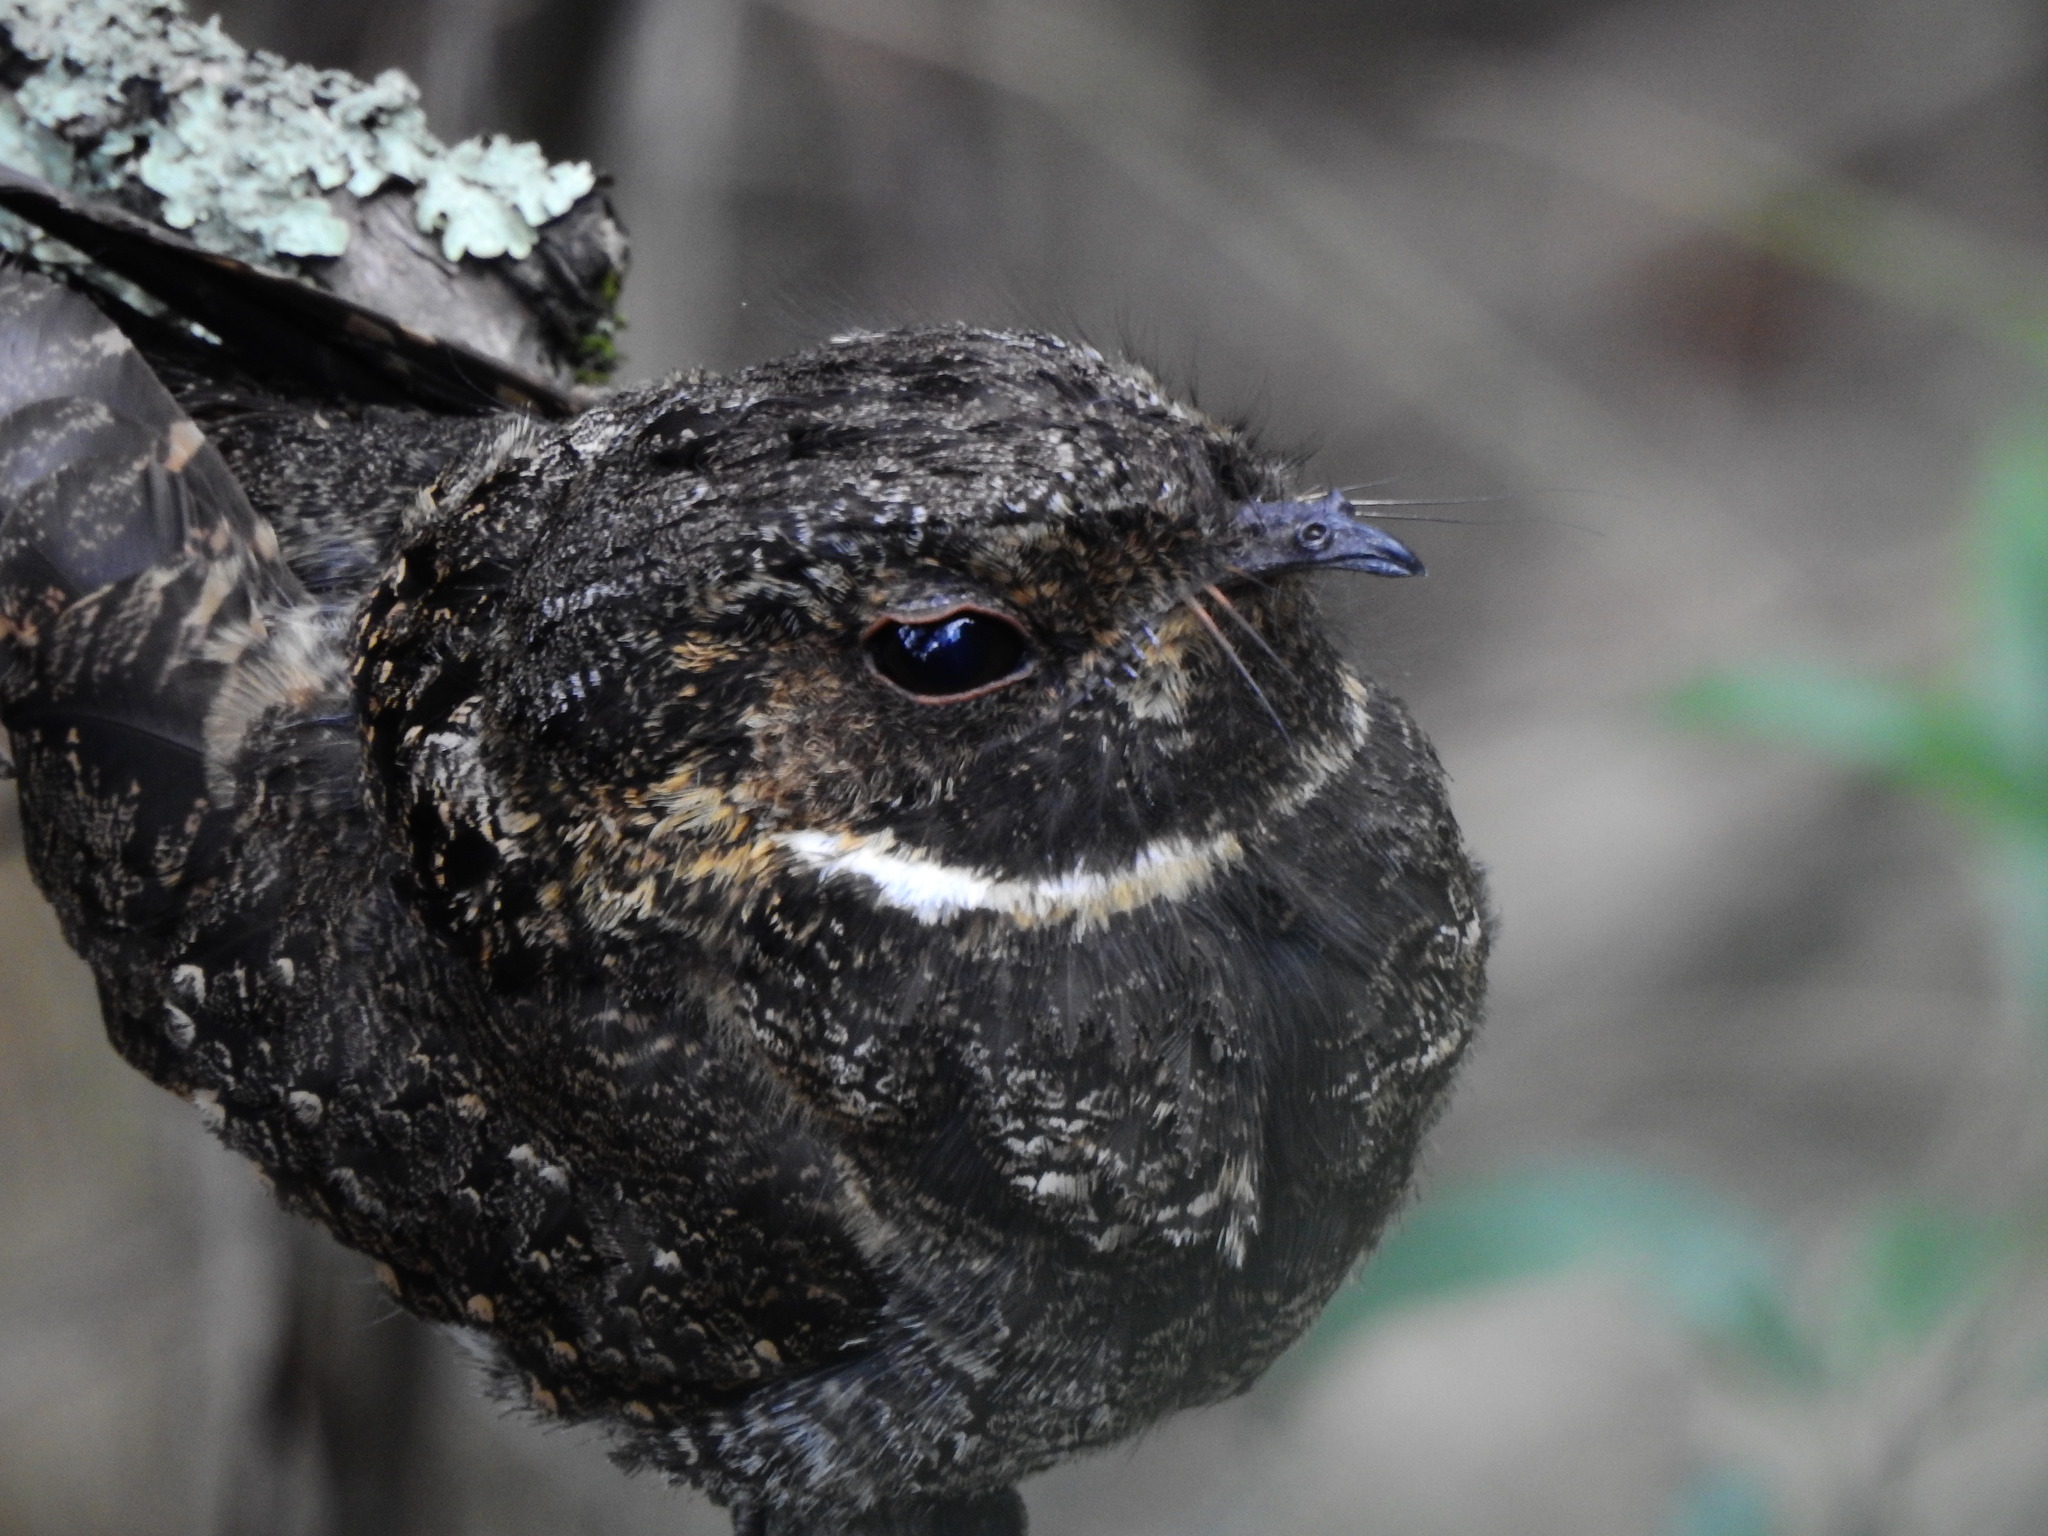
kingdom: Animalia
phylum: Chordata
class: Aves
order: Caprimulgiformes
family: Caprimulgidae
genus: Antrostomus
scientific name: Antrostomus arizonae
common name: Mexican whip-poor-will
